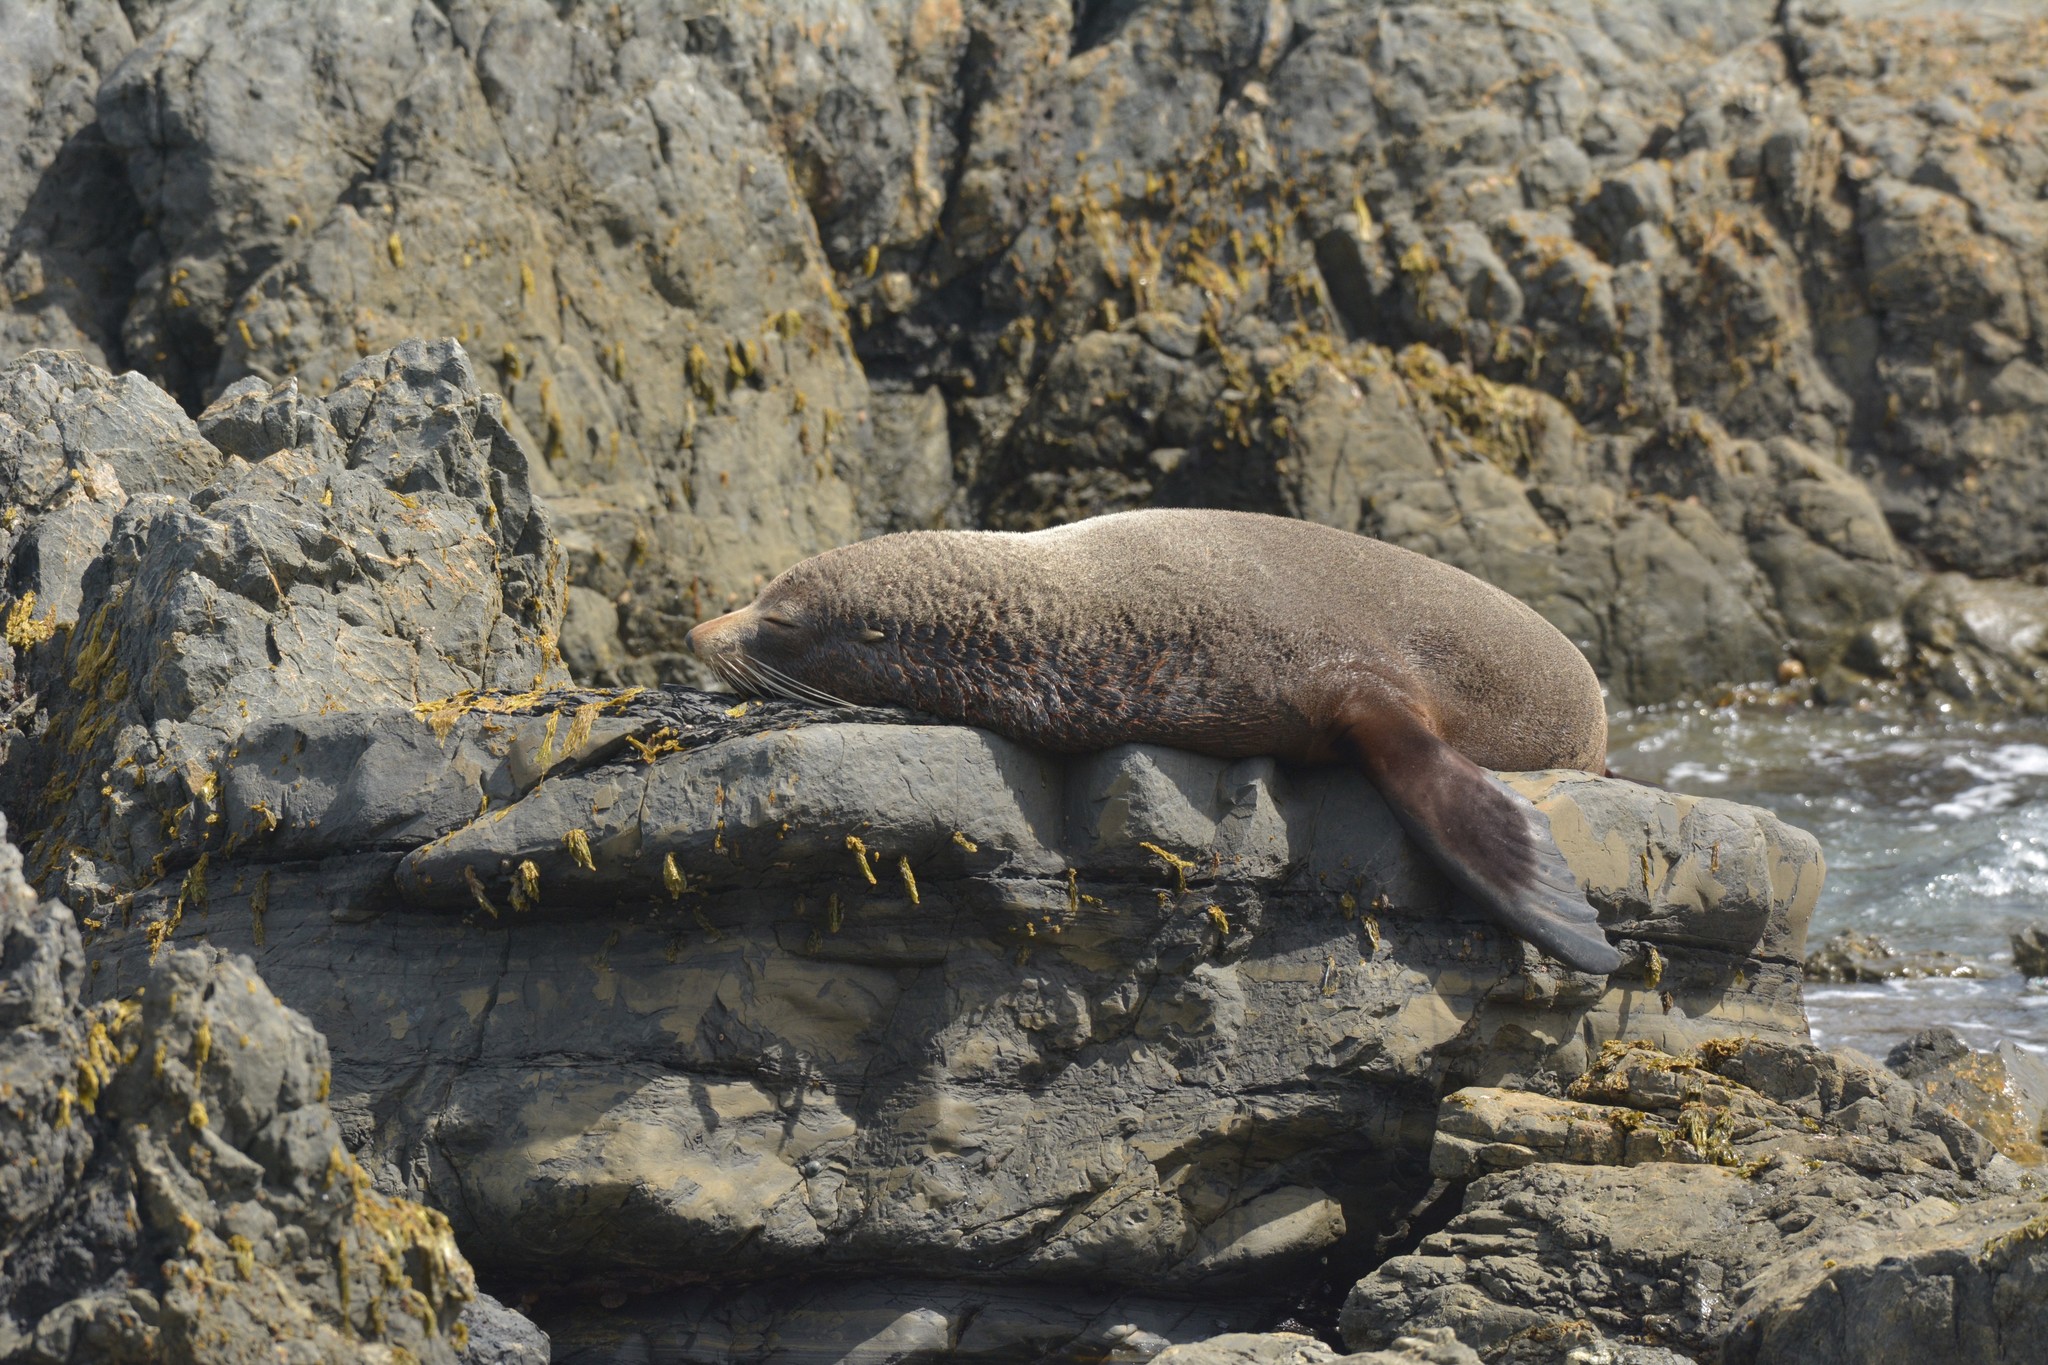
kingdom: Animalia
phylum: Chordata
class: Mammalia
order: Carnivora
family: Otariidae
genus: Arctocephalus
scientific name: Arctocephalus forsteri
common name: New zealand fur seal
